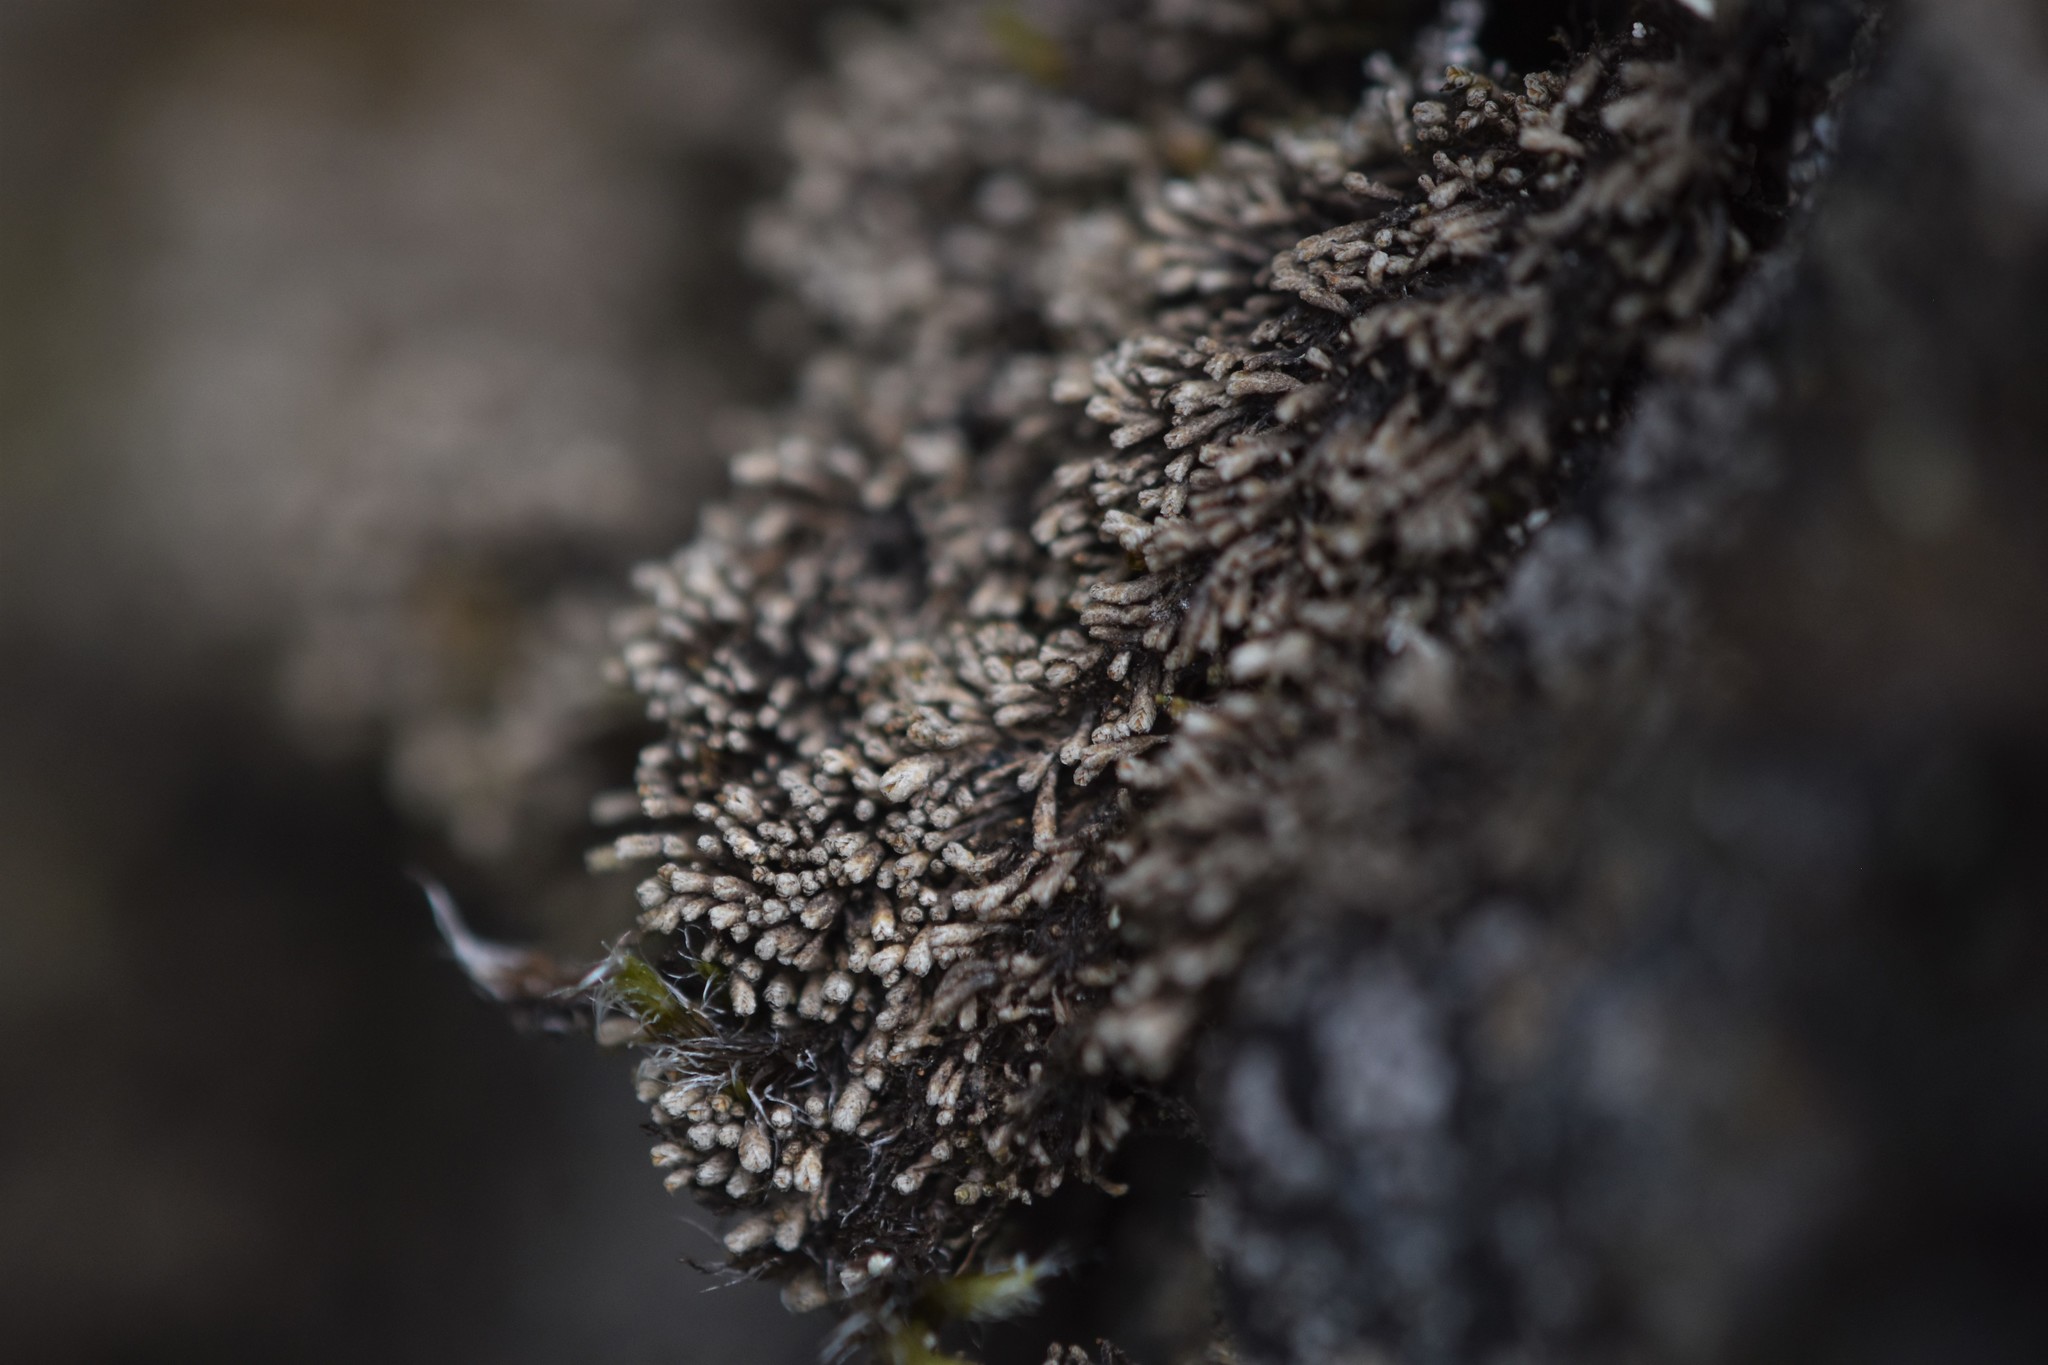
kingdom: Plantae
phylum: Marchantiophyta
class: Jungermanniopsida
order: Jungermanniales
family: Gymnomitriaceae
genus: Gymnomitrion
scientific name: Gymnomitrion obtusum
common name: White frostwort
